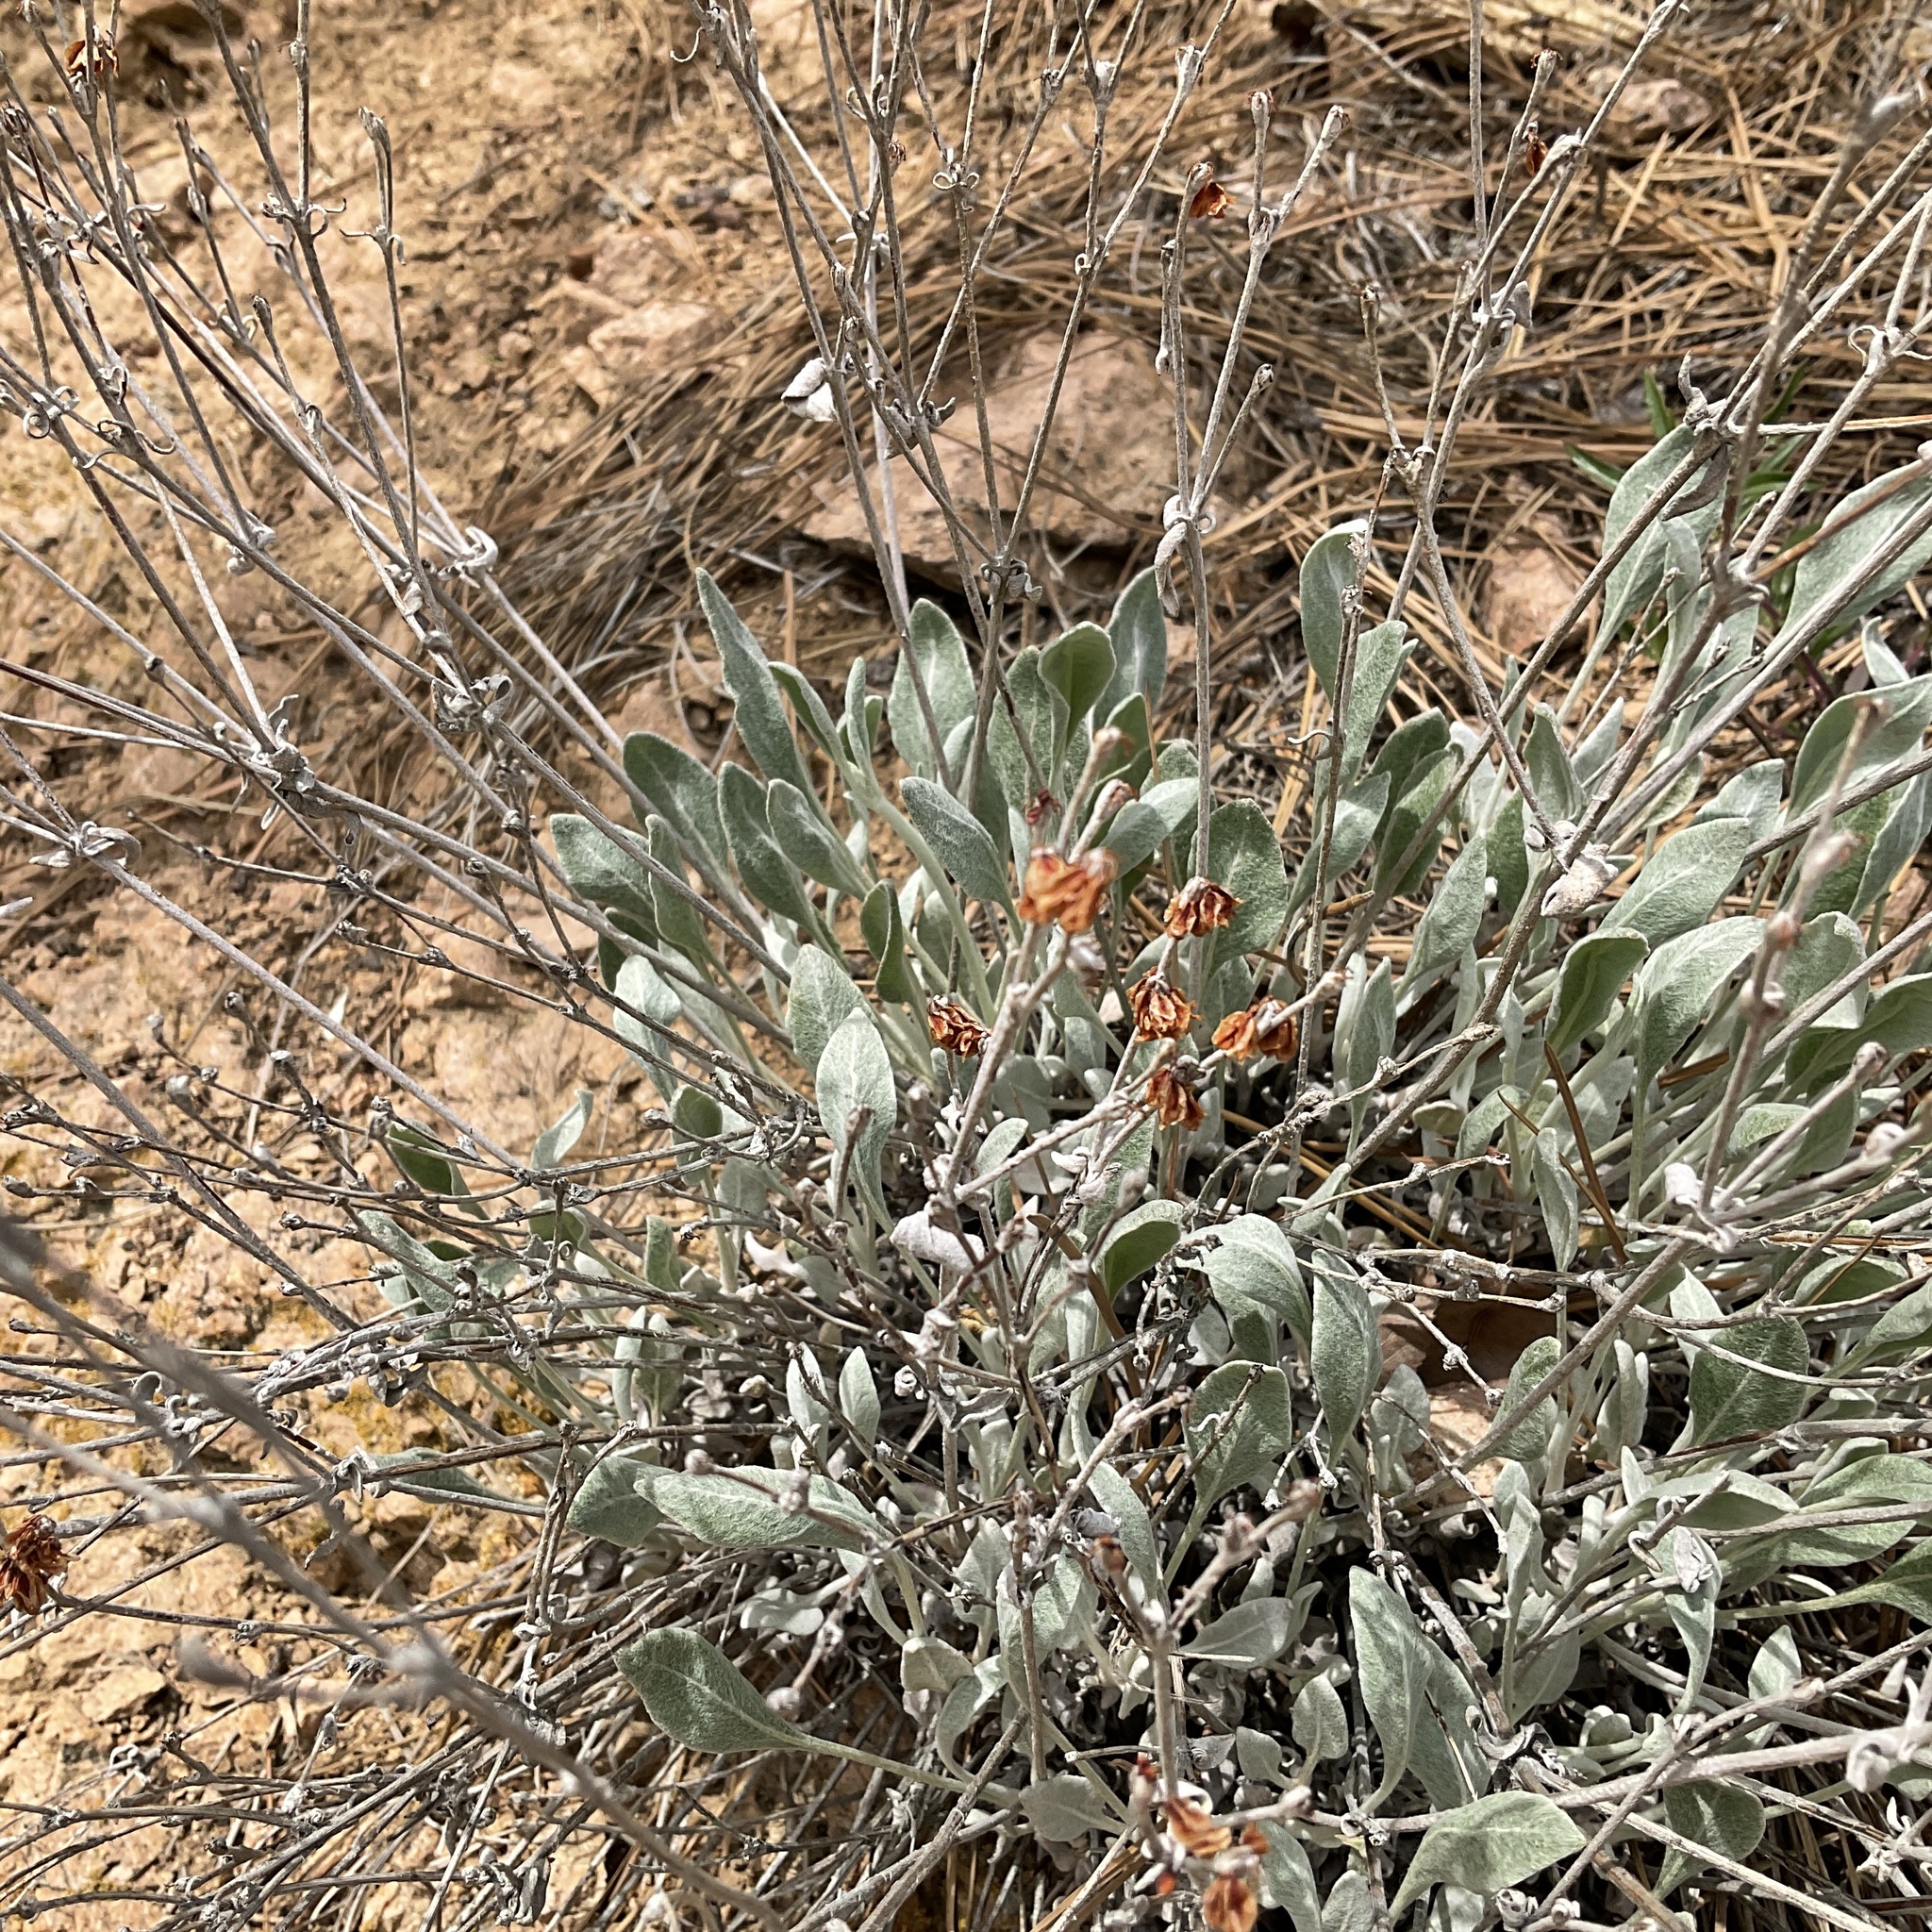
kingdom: Plantae
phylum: Tracheophyta
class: Magnoliopsida
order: Caryophyllales
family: Polygonaceae
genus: Eriogonum
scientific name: Eriogonum niveum
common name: Snow wild buckwheat
